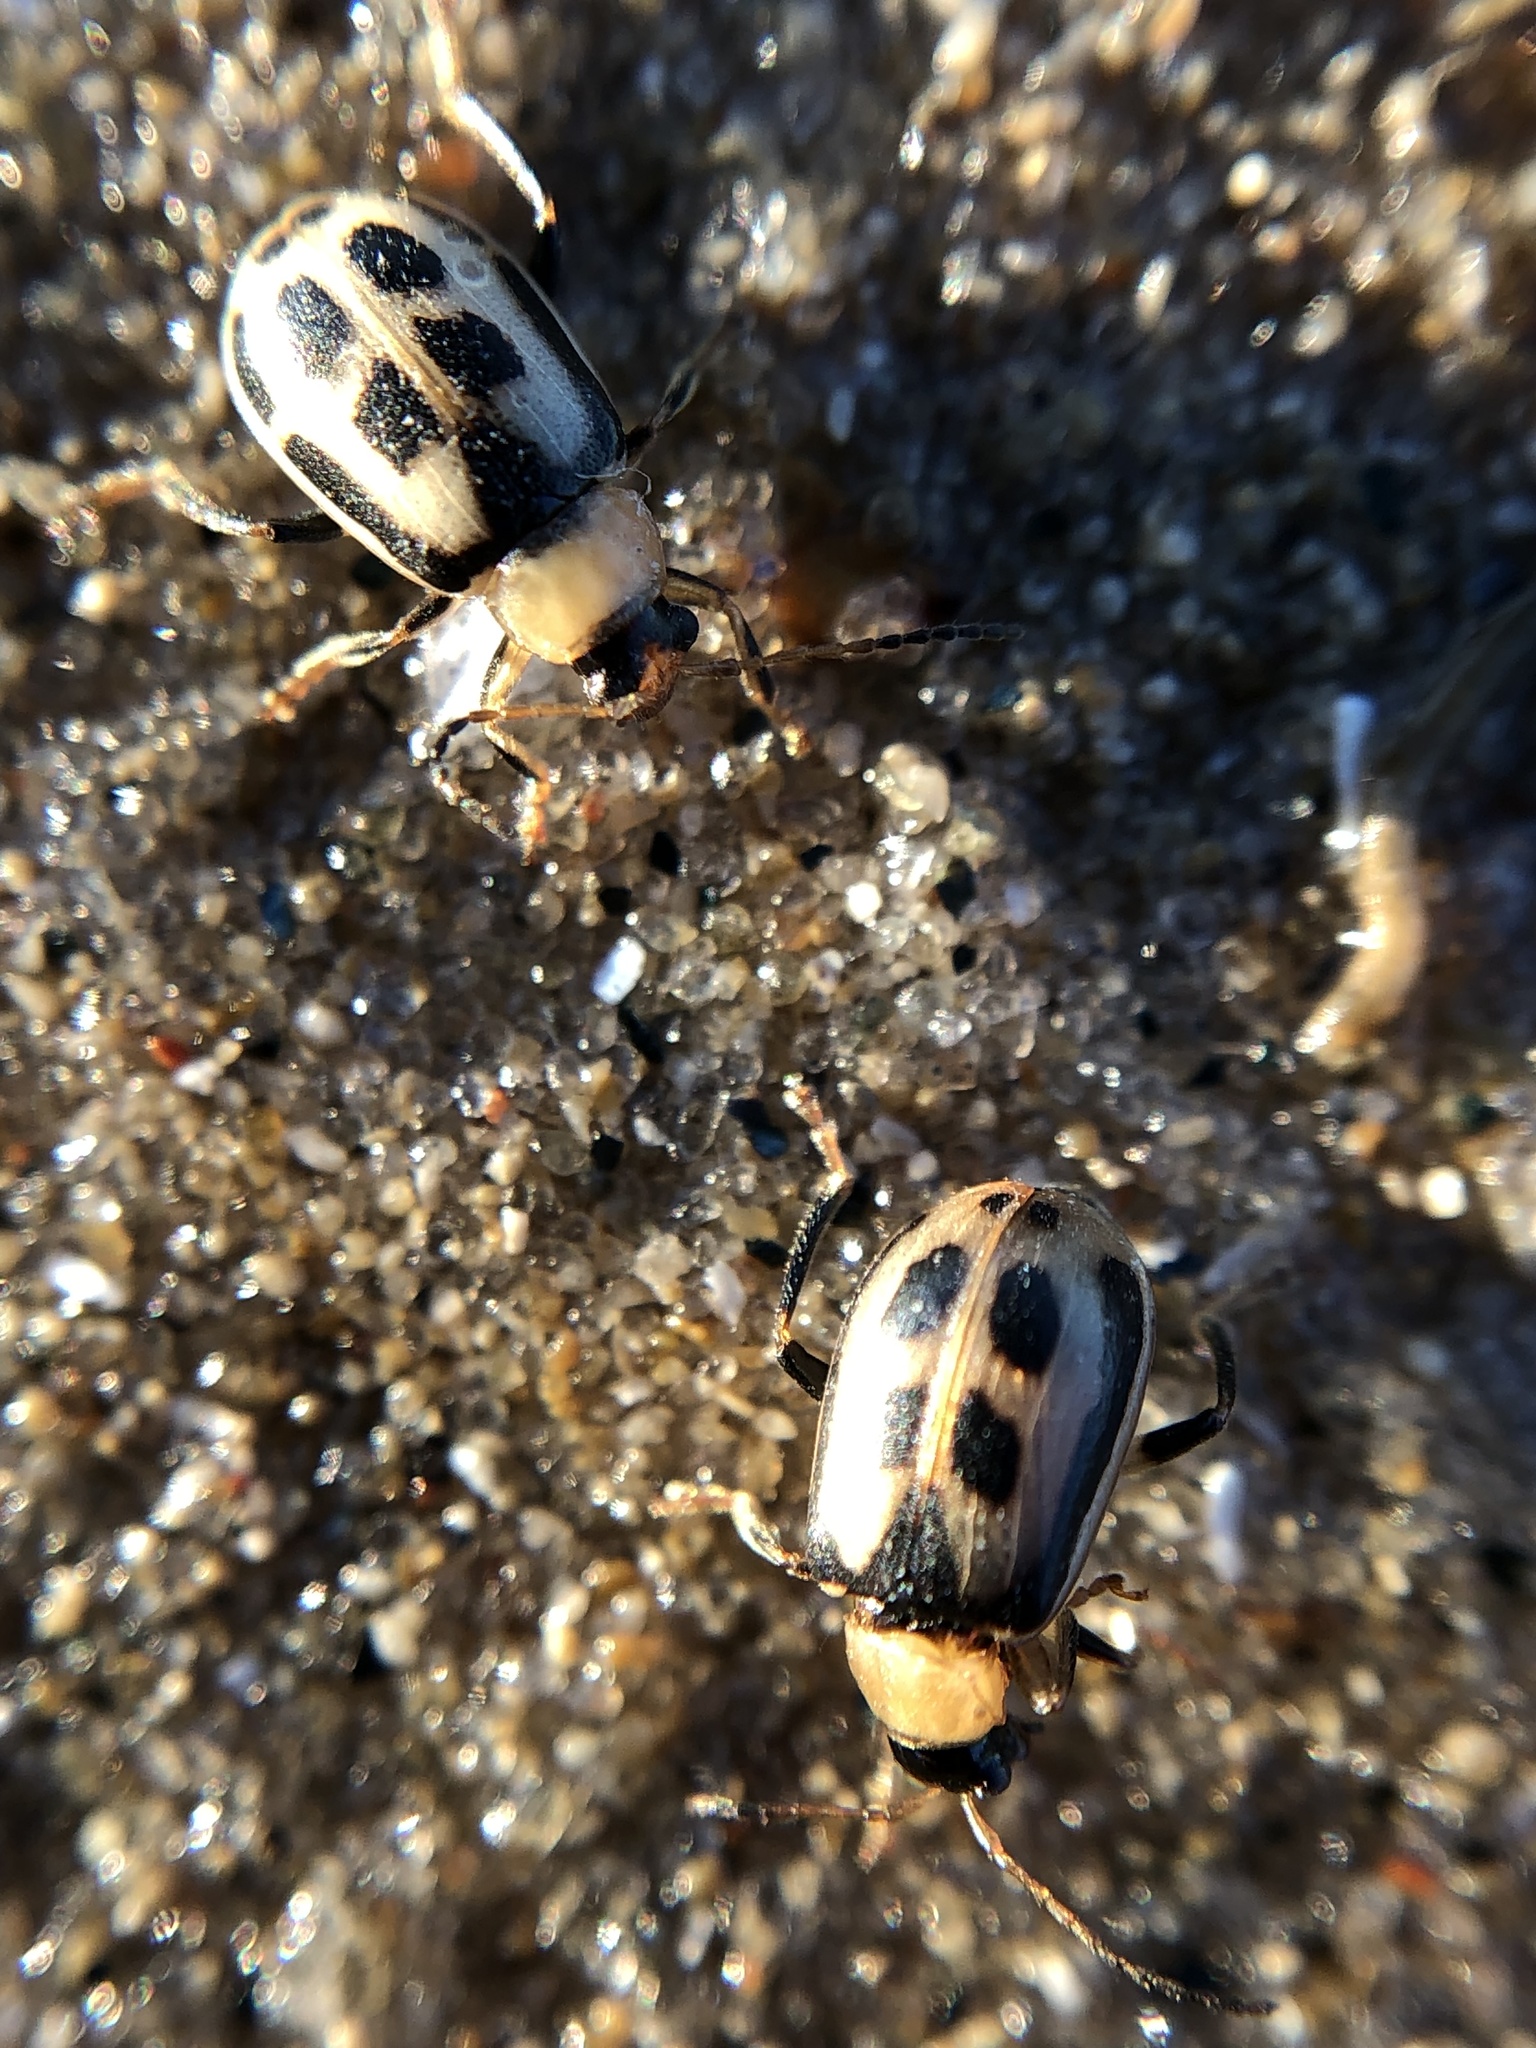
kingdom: Animalia
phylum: Arthropoda
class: Insecta
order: Coleoptera
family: Chrysomelidae
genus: Cerotoma
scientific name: Cerotoma trifurcata
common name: Bean leaf beetle
